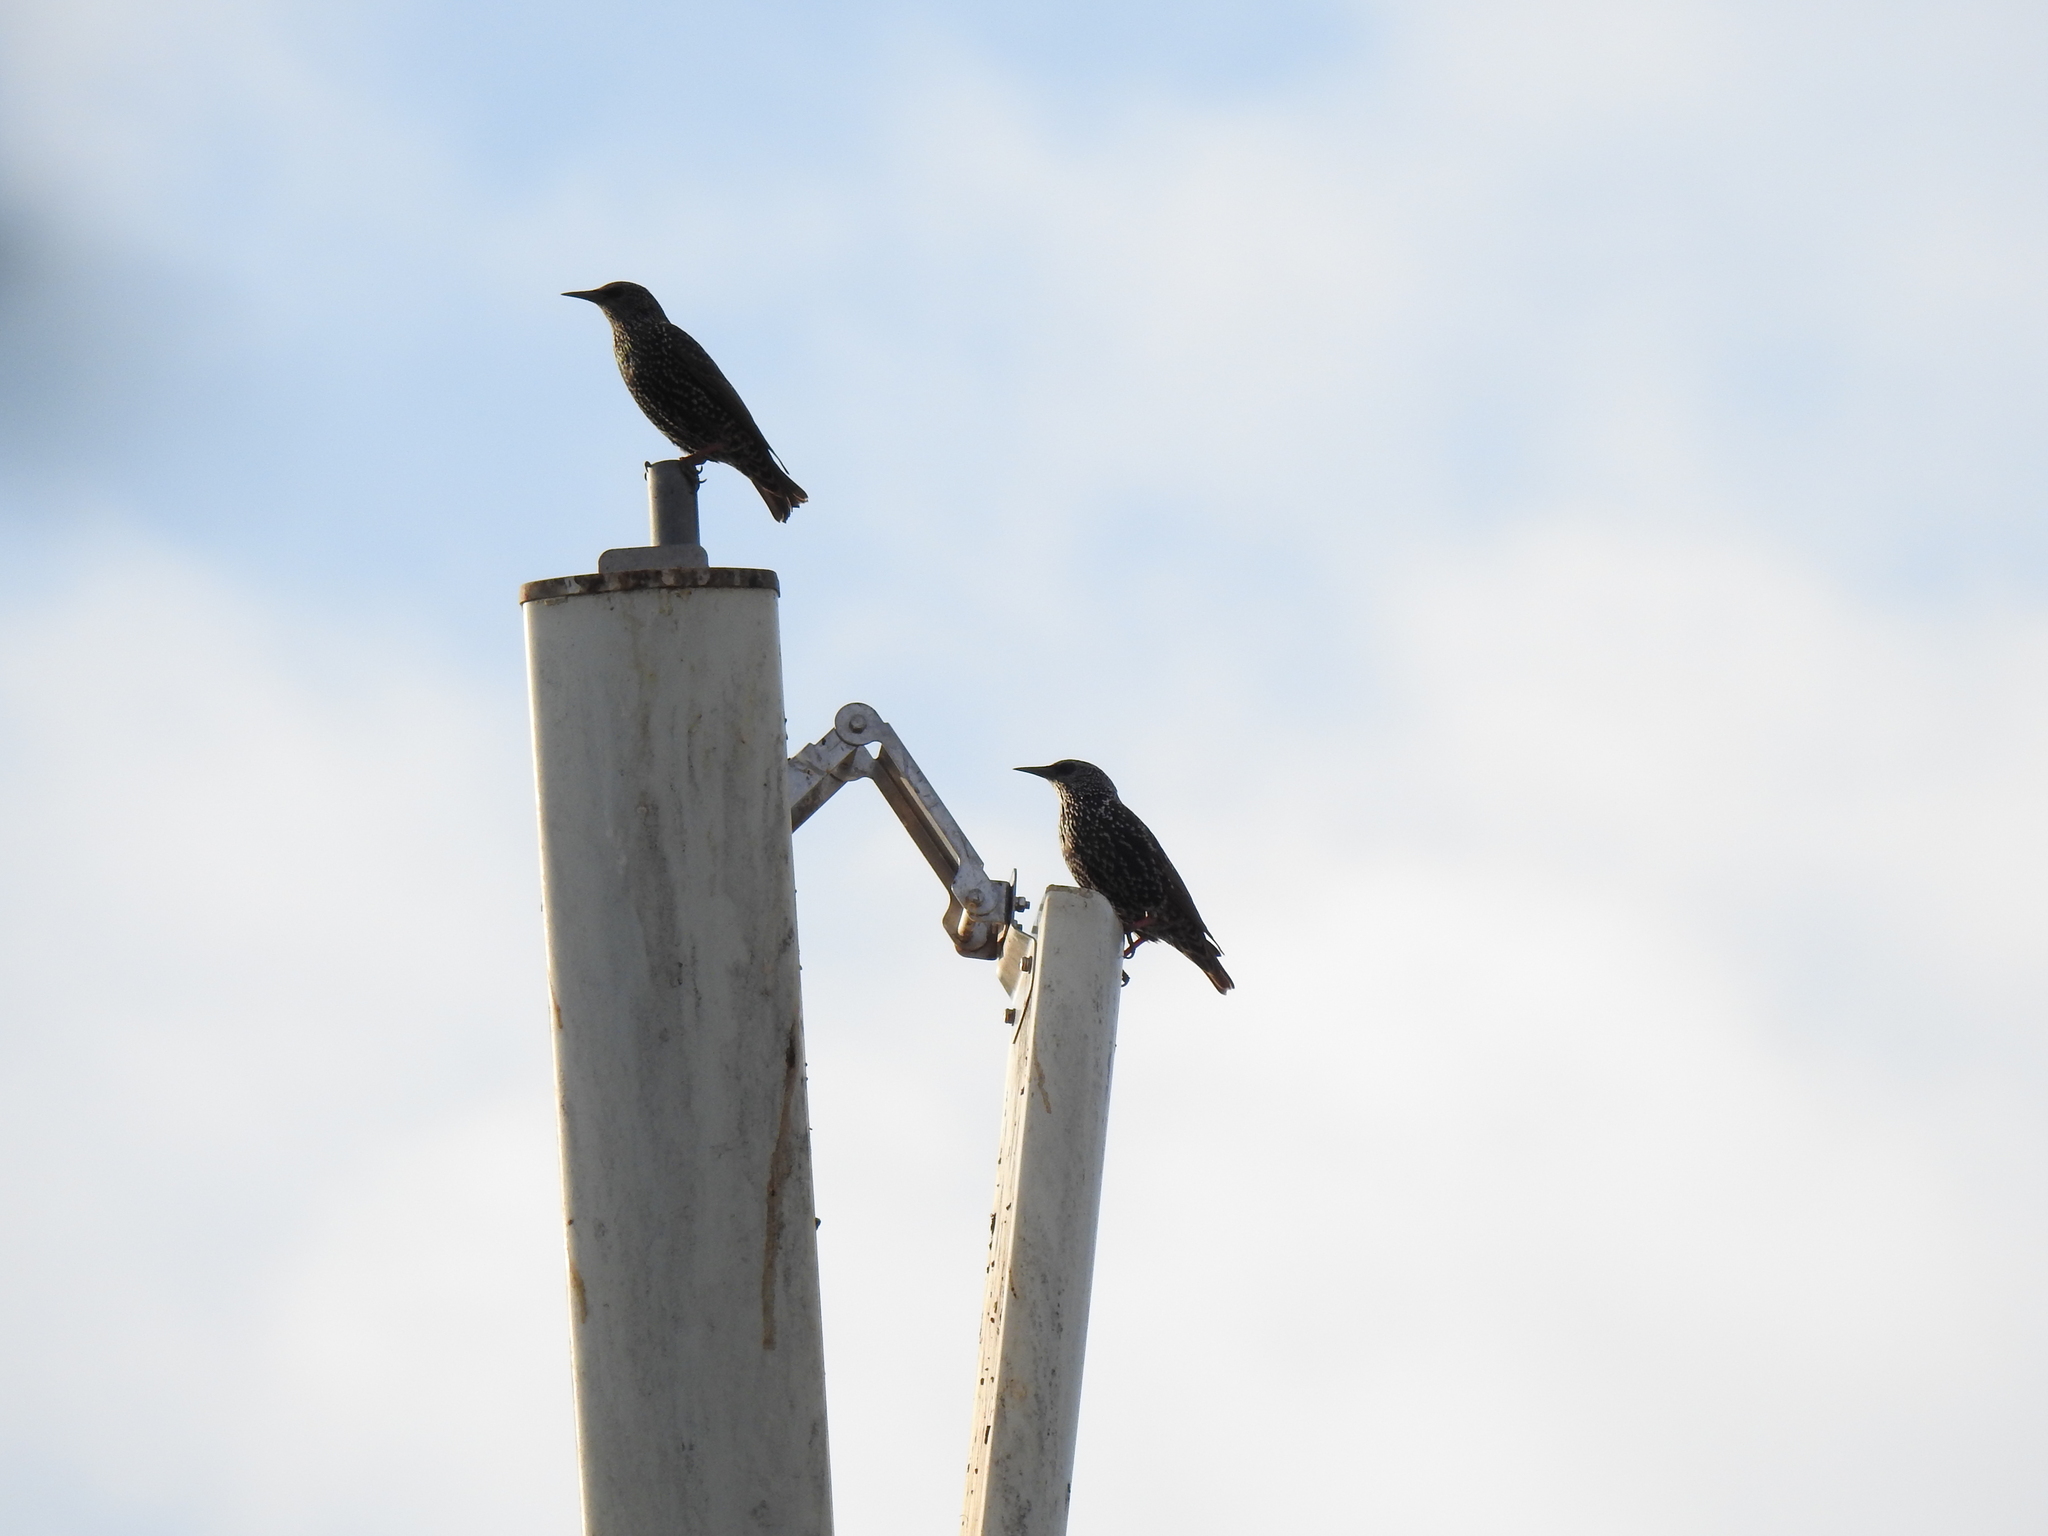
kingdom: Animalia
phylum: Chordata
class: Aves
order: Passeriformes
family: Sturnidae
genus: Sturnus
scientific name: Sturnus vulgaris
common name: Common starling
